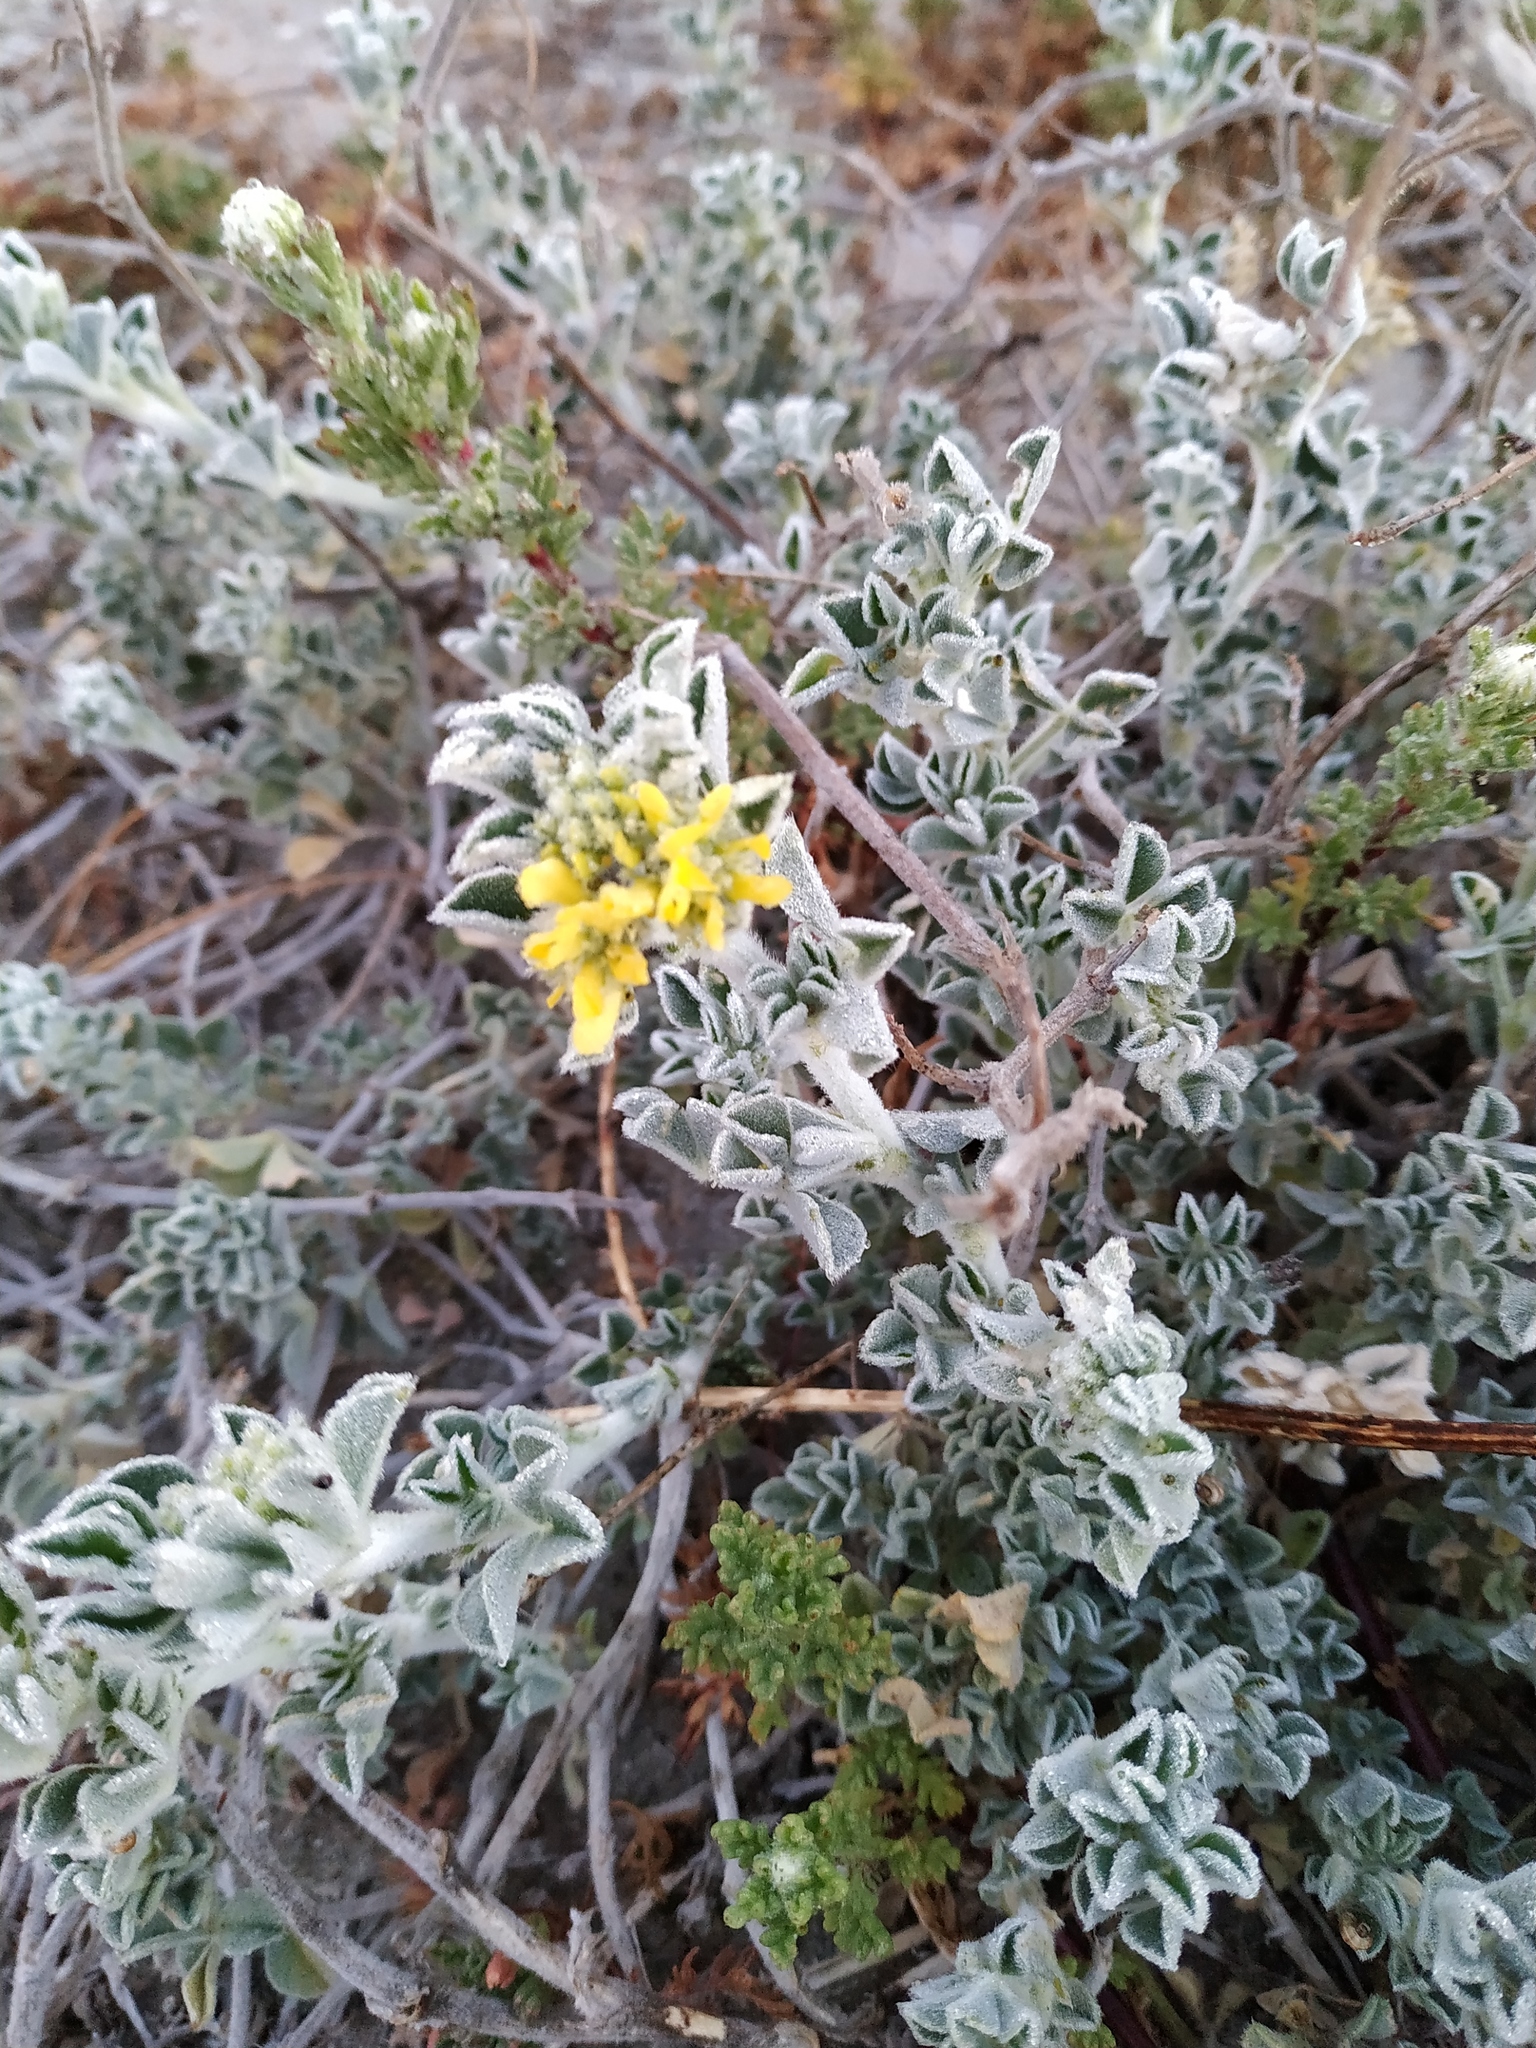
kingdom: Plantae
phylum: Tracheophyta
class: Magnoliopsida
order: Fabales
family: Fabaceae
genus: Medicago
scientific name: Medicago marina
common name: Sea medick
